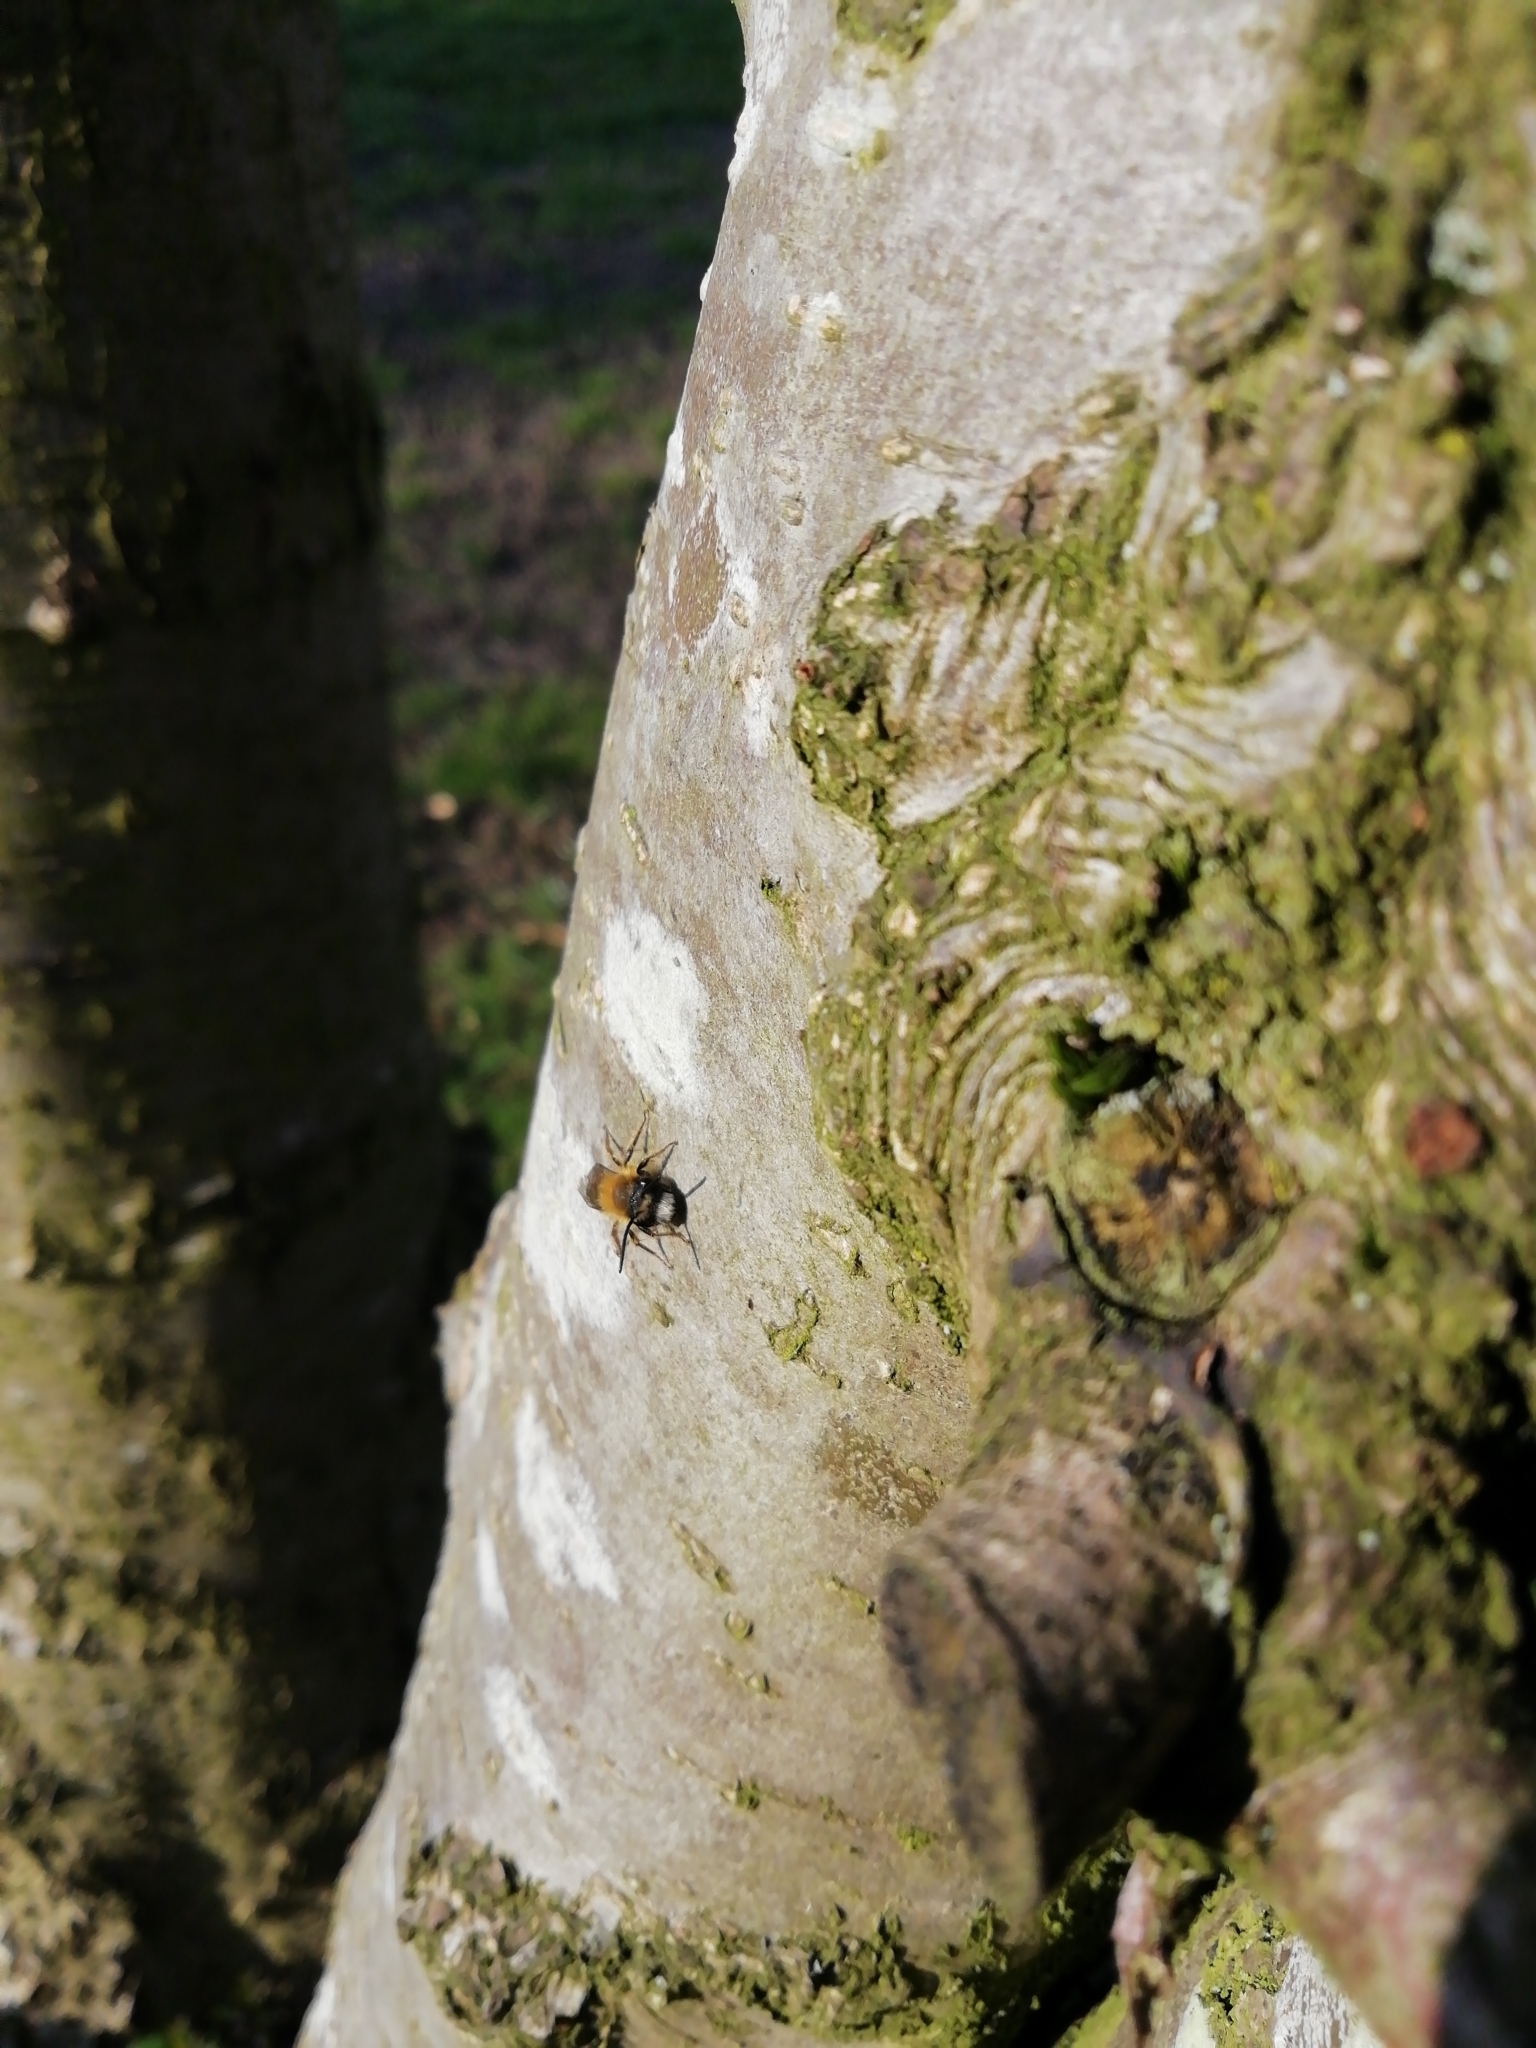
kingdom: Animalia
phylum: Arthropoda
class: Insecta
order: Hymenoptera
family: Andrenidae
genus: Andrena
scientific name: Andrena fulva
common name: Tawny mining bee
